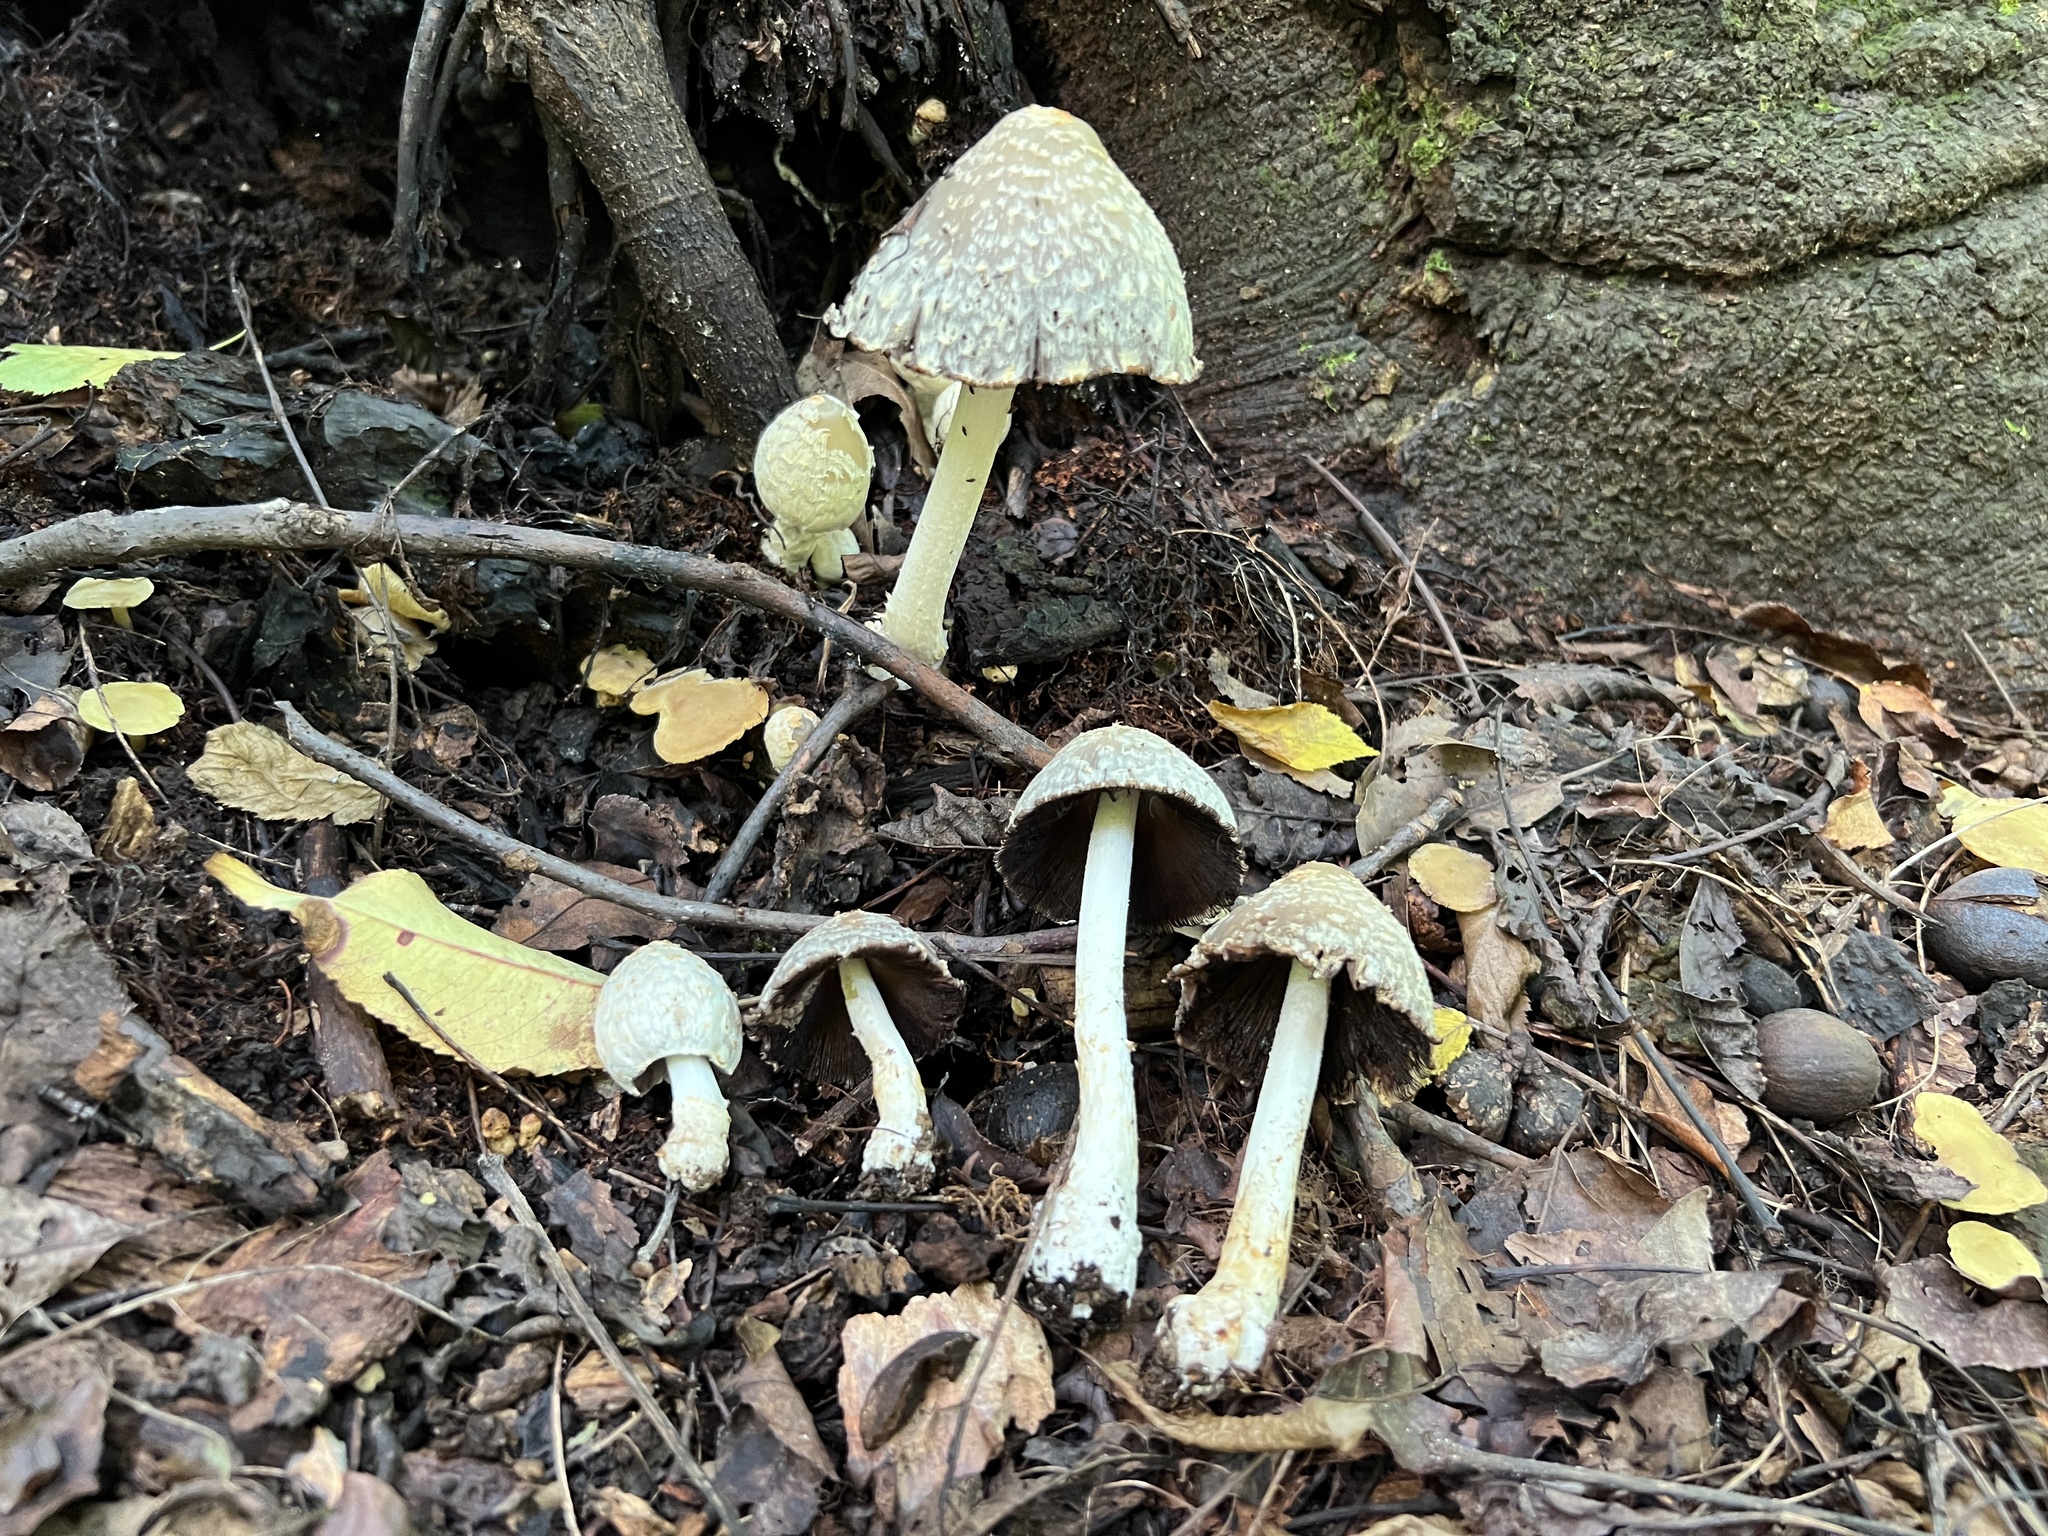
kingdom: Fungi
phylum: Basidiomycota
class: Agaricomycetes
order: Agaricales
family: Psathyrellaceae
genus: Coprinopsis
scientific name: Coprinopsis variegata
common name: Scaly ink cap
